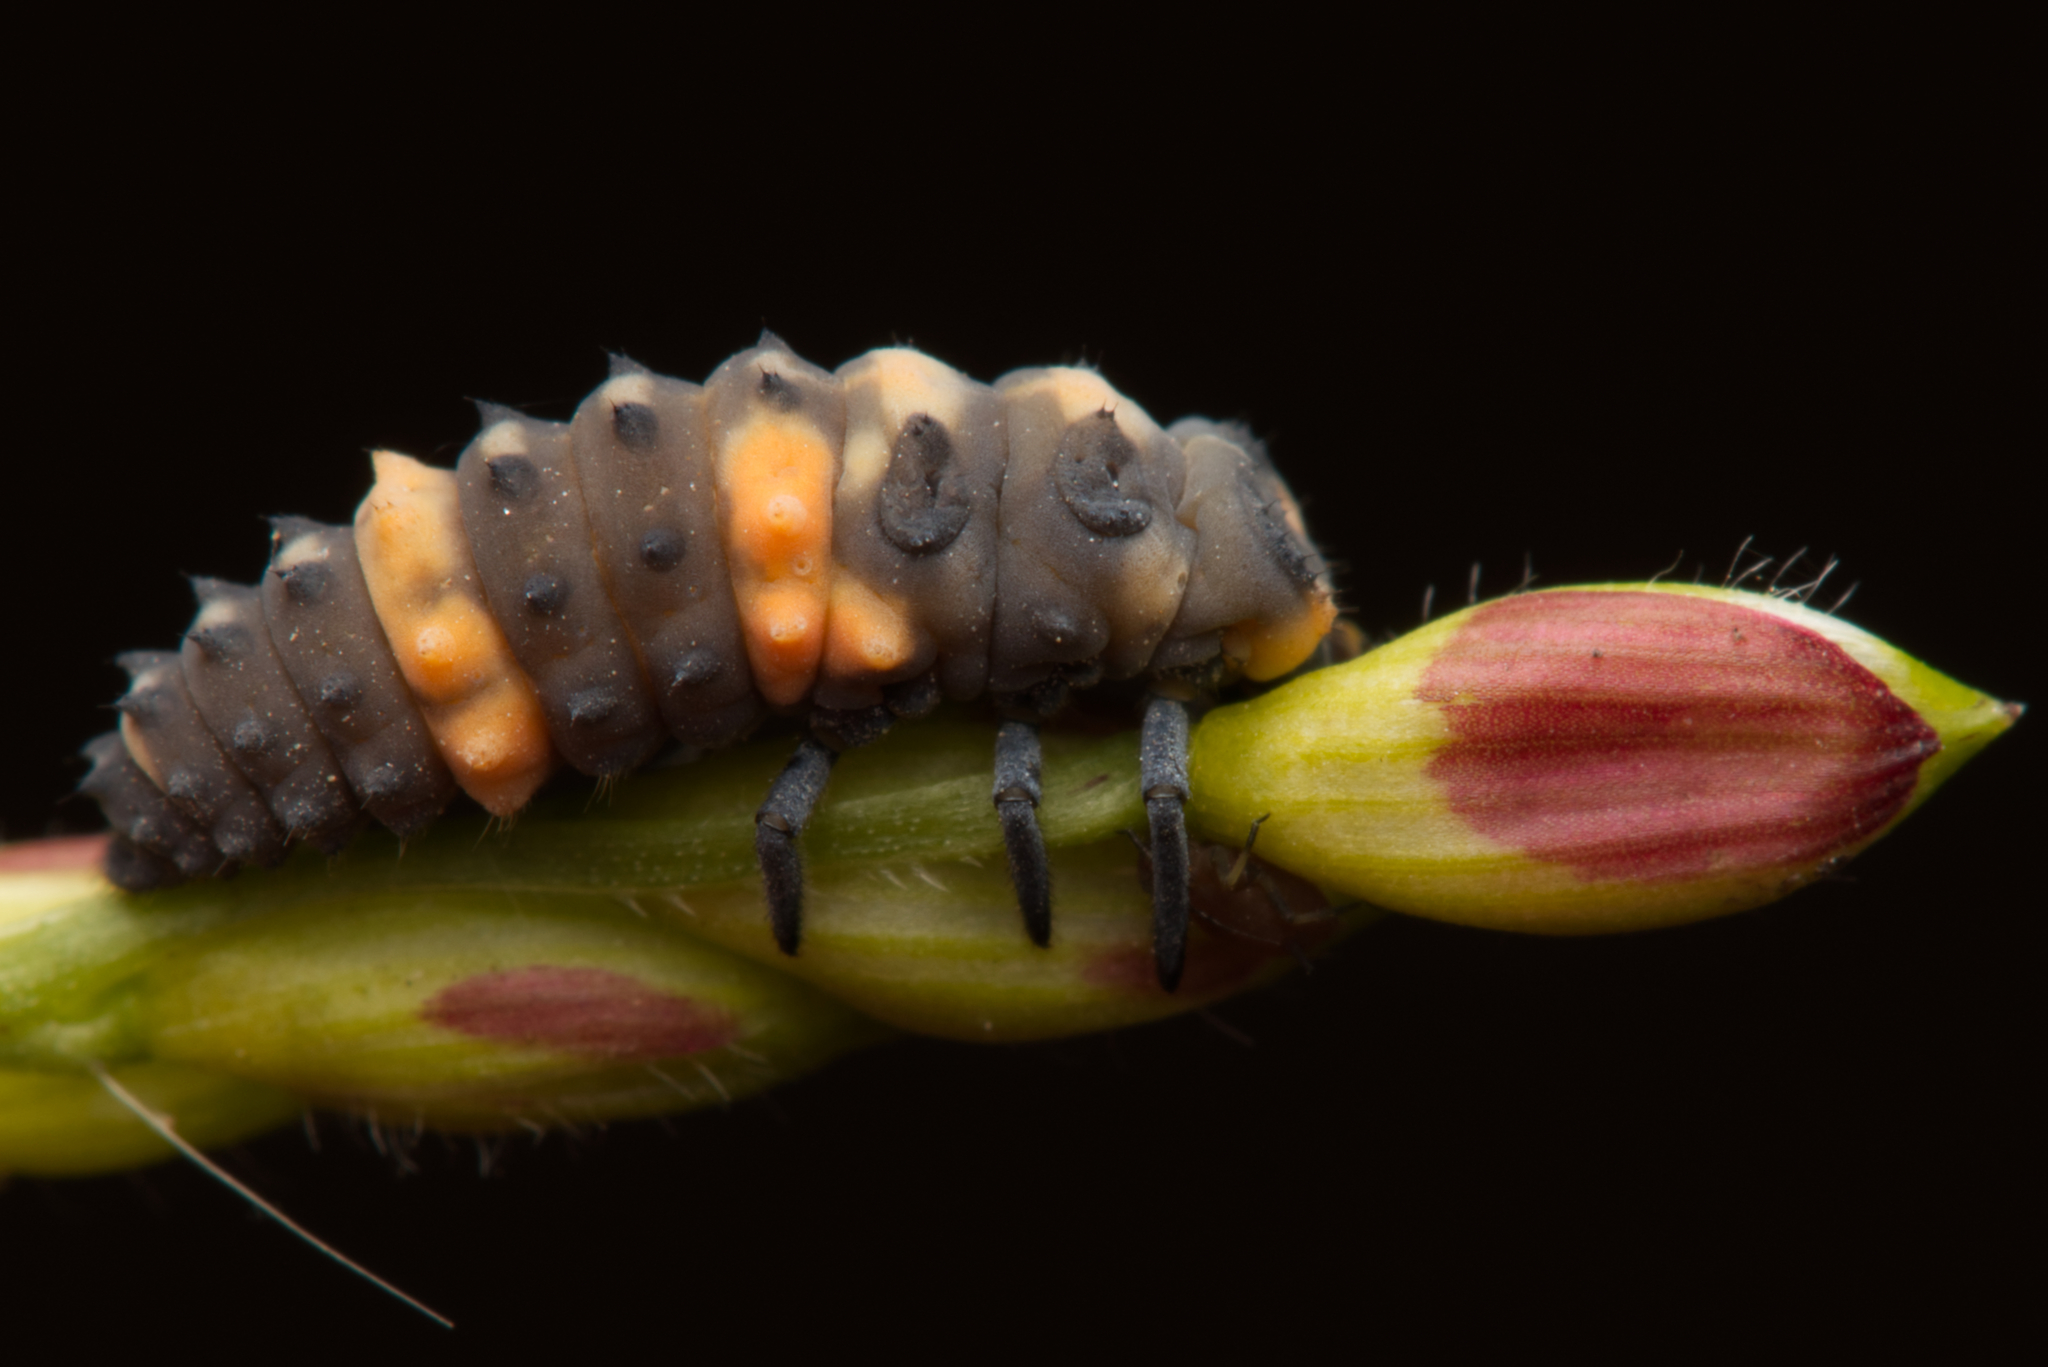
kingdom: Animalia
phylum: Arthropoda
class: Insecta
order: Coleoptera
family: Coccinellidae
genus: Coccinella
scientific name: Coccinella transversalis
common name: Transverse lady beetle
